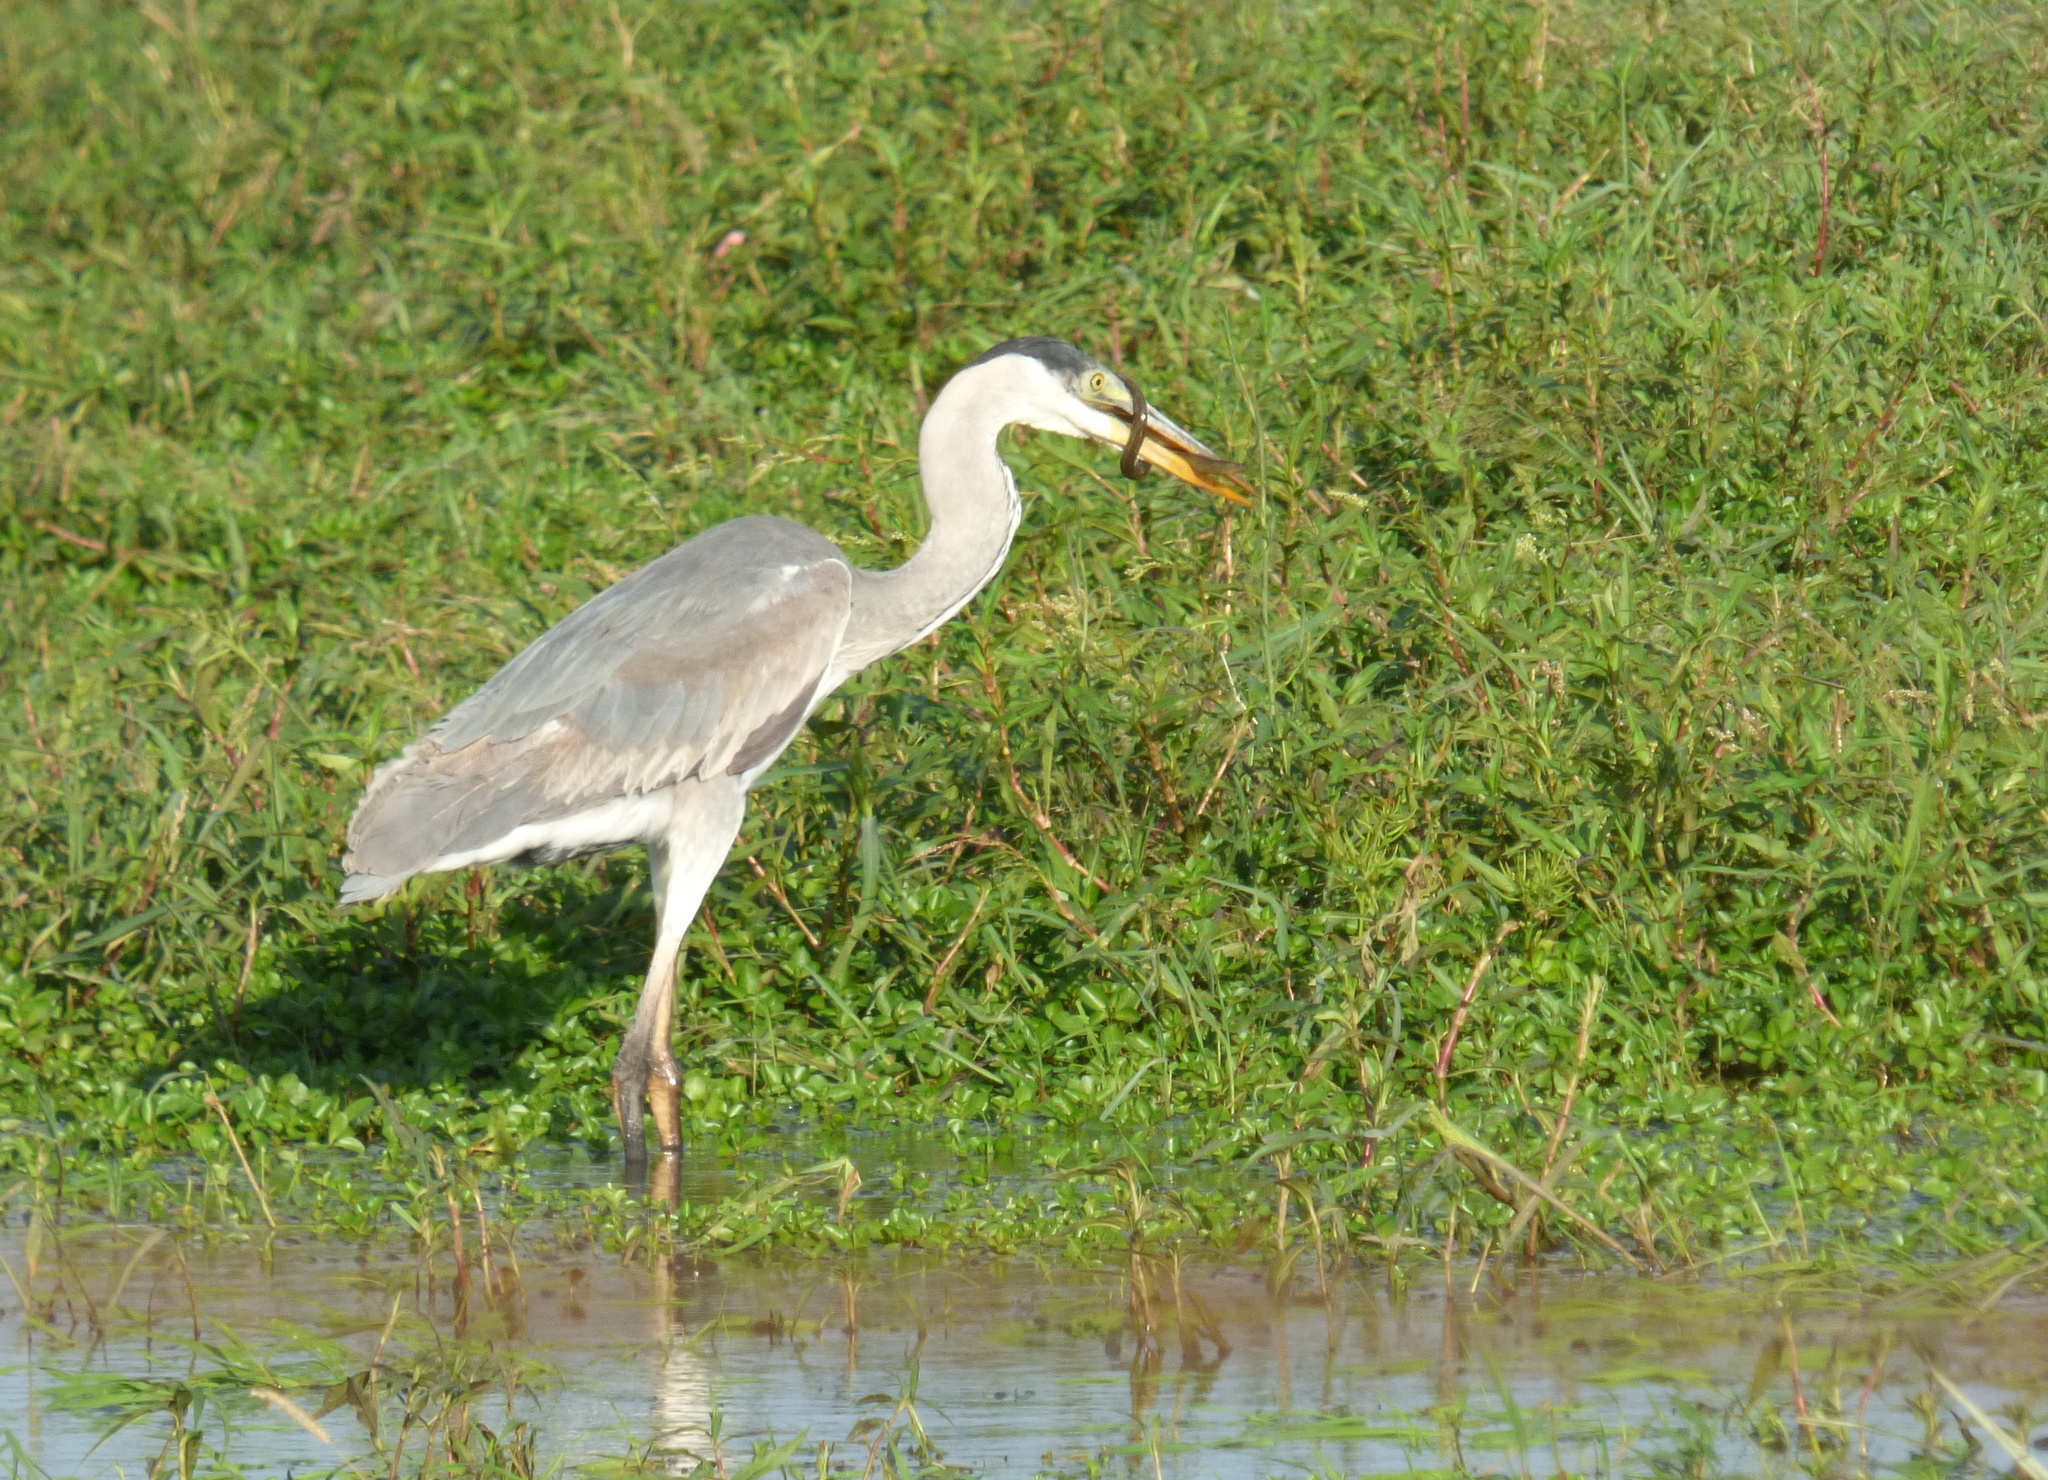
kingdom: Animalia
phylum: Chordata
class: Aves
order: Pelecaniformes
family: Ardeidae
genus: Ardea
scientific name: Ardea cocoi
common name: Cocoi heron
